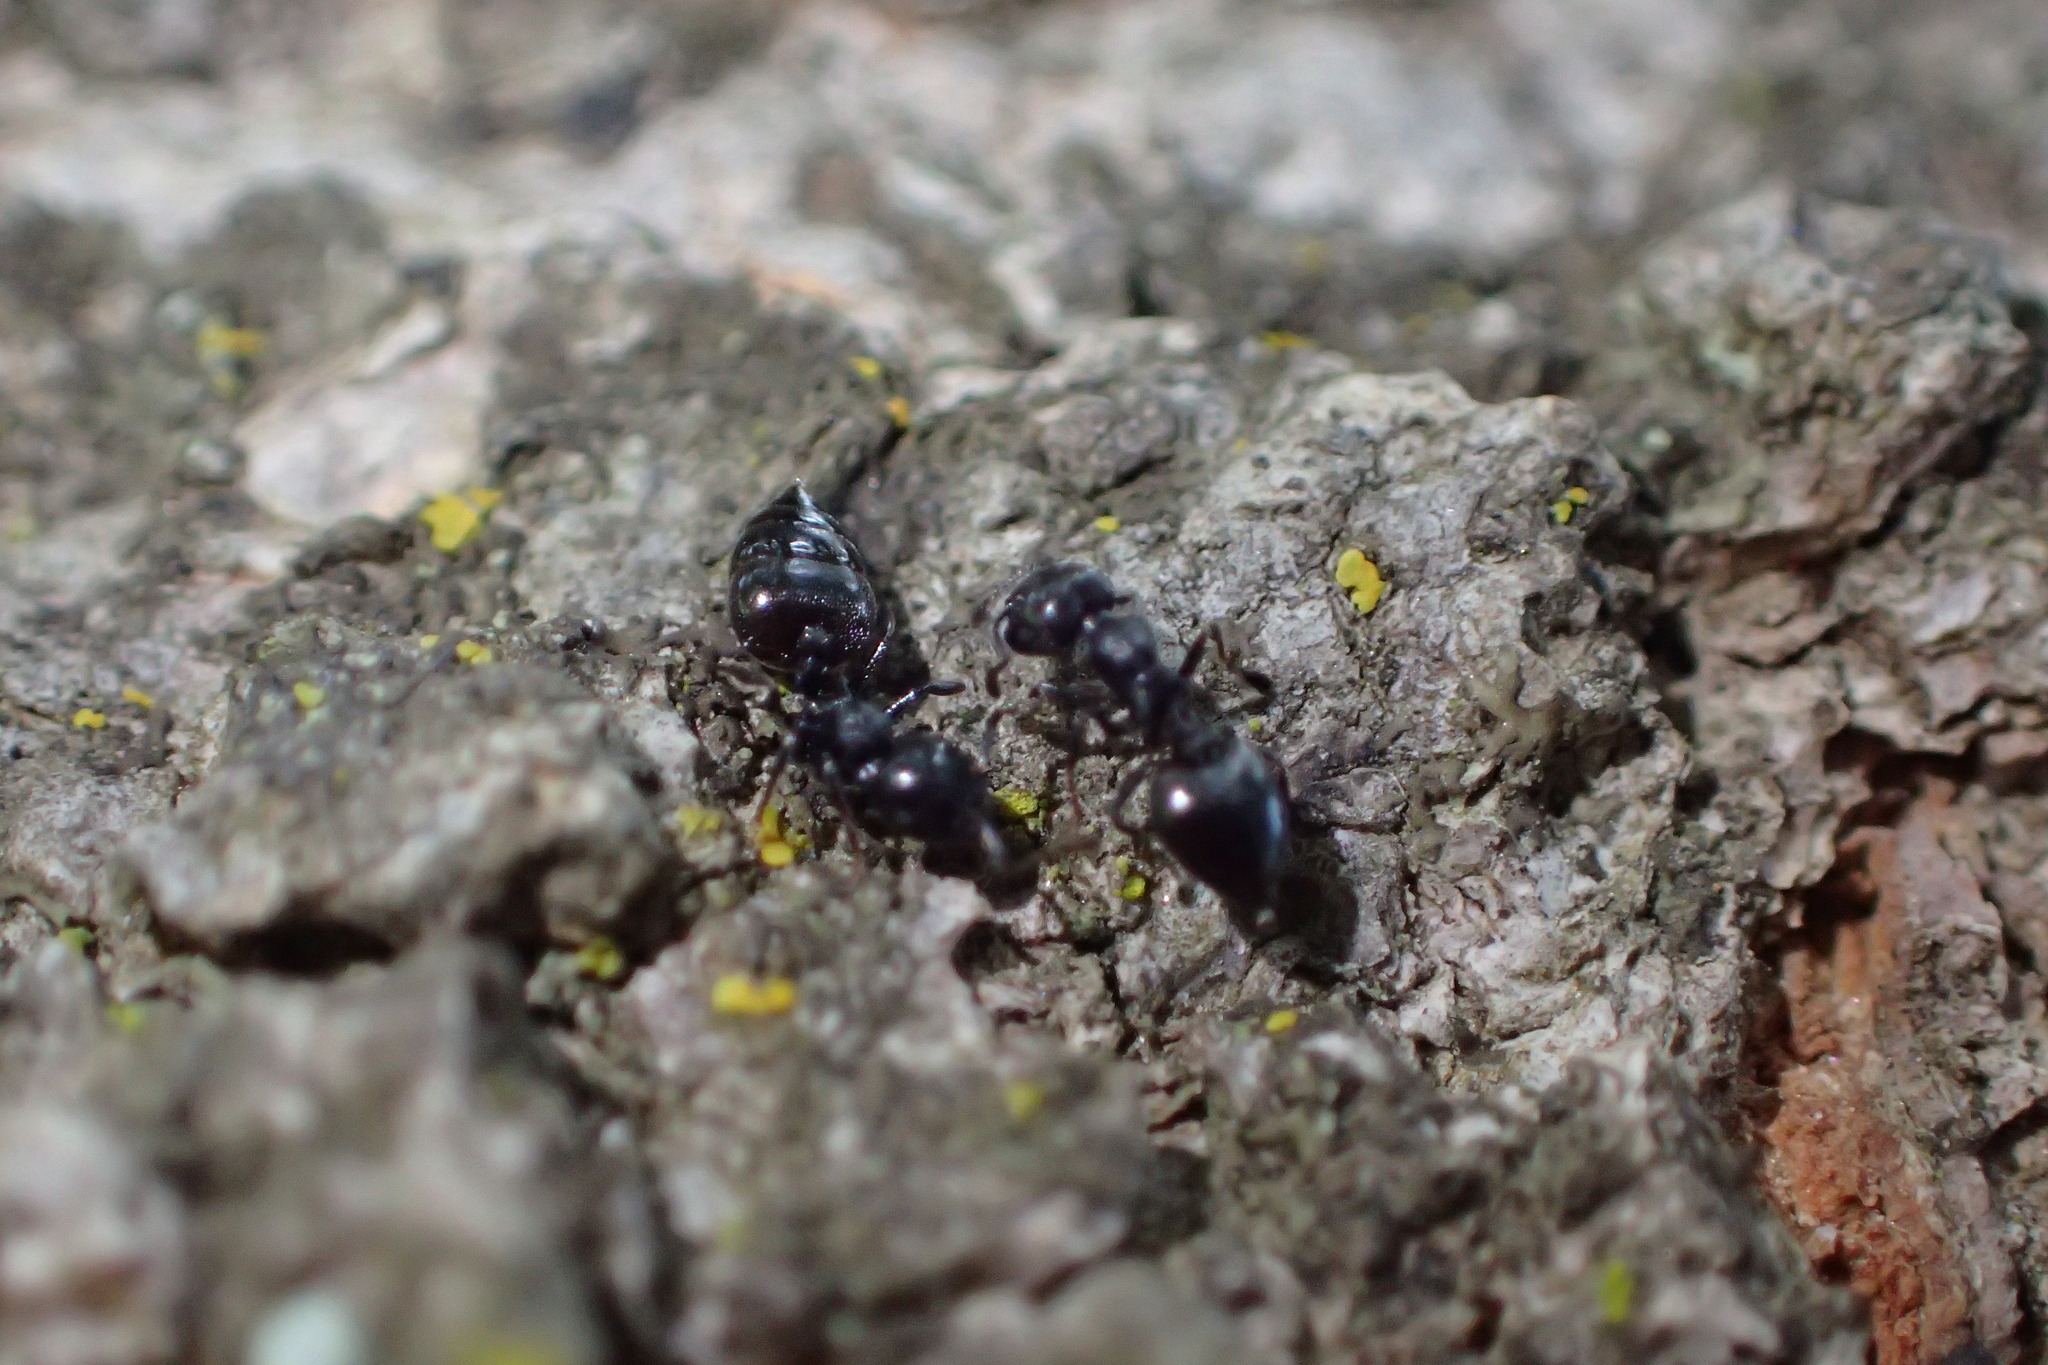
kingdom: Animalia
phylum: Arthropoda
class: Insecta
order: Hymenoptera
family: Formicidae
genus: Crematogaster
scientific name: Crematogaster peringueyi
